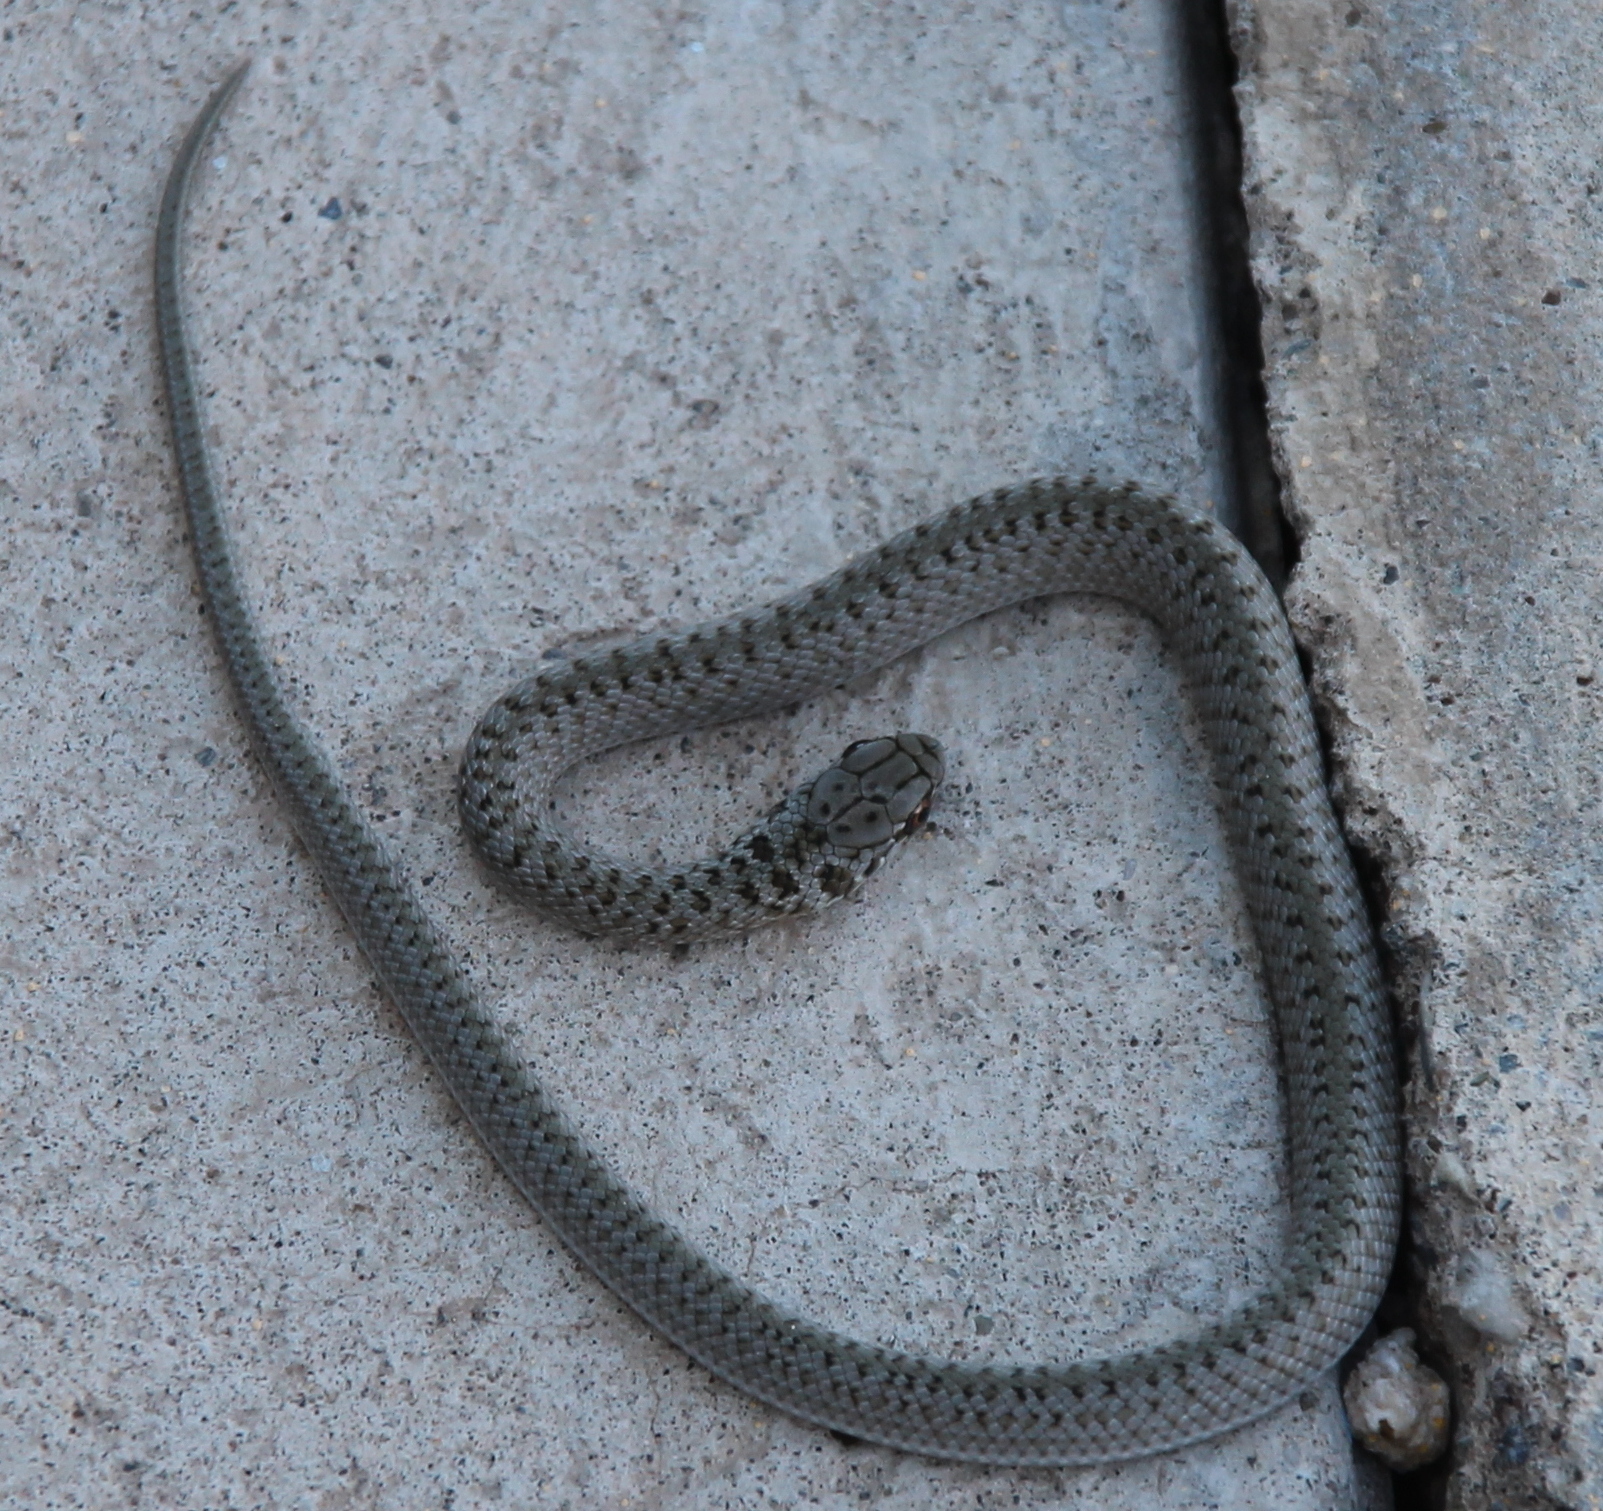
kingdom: Animalia
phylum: Chordata
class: Squamata
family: Colubridae
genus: Philodryas
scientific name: Philodryas patagoniensis
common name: Patagonia green racer
